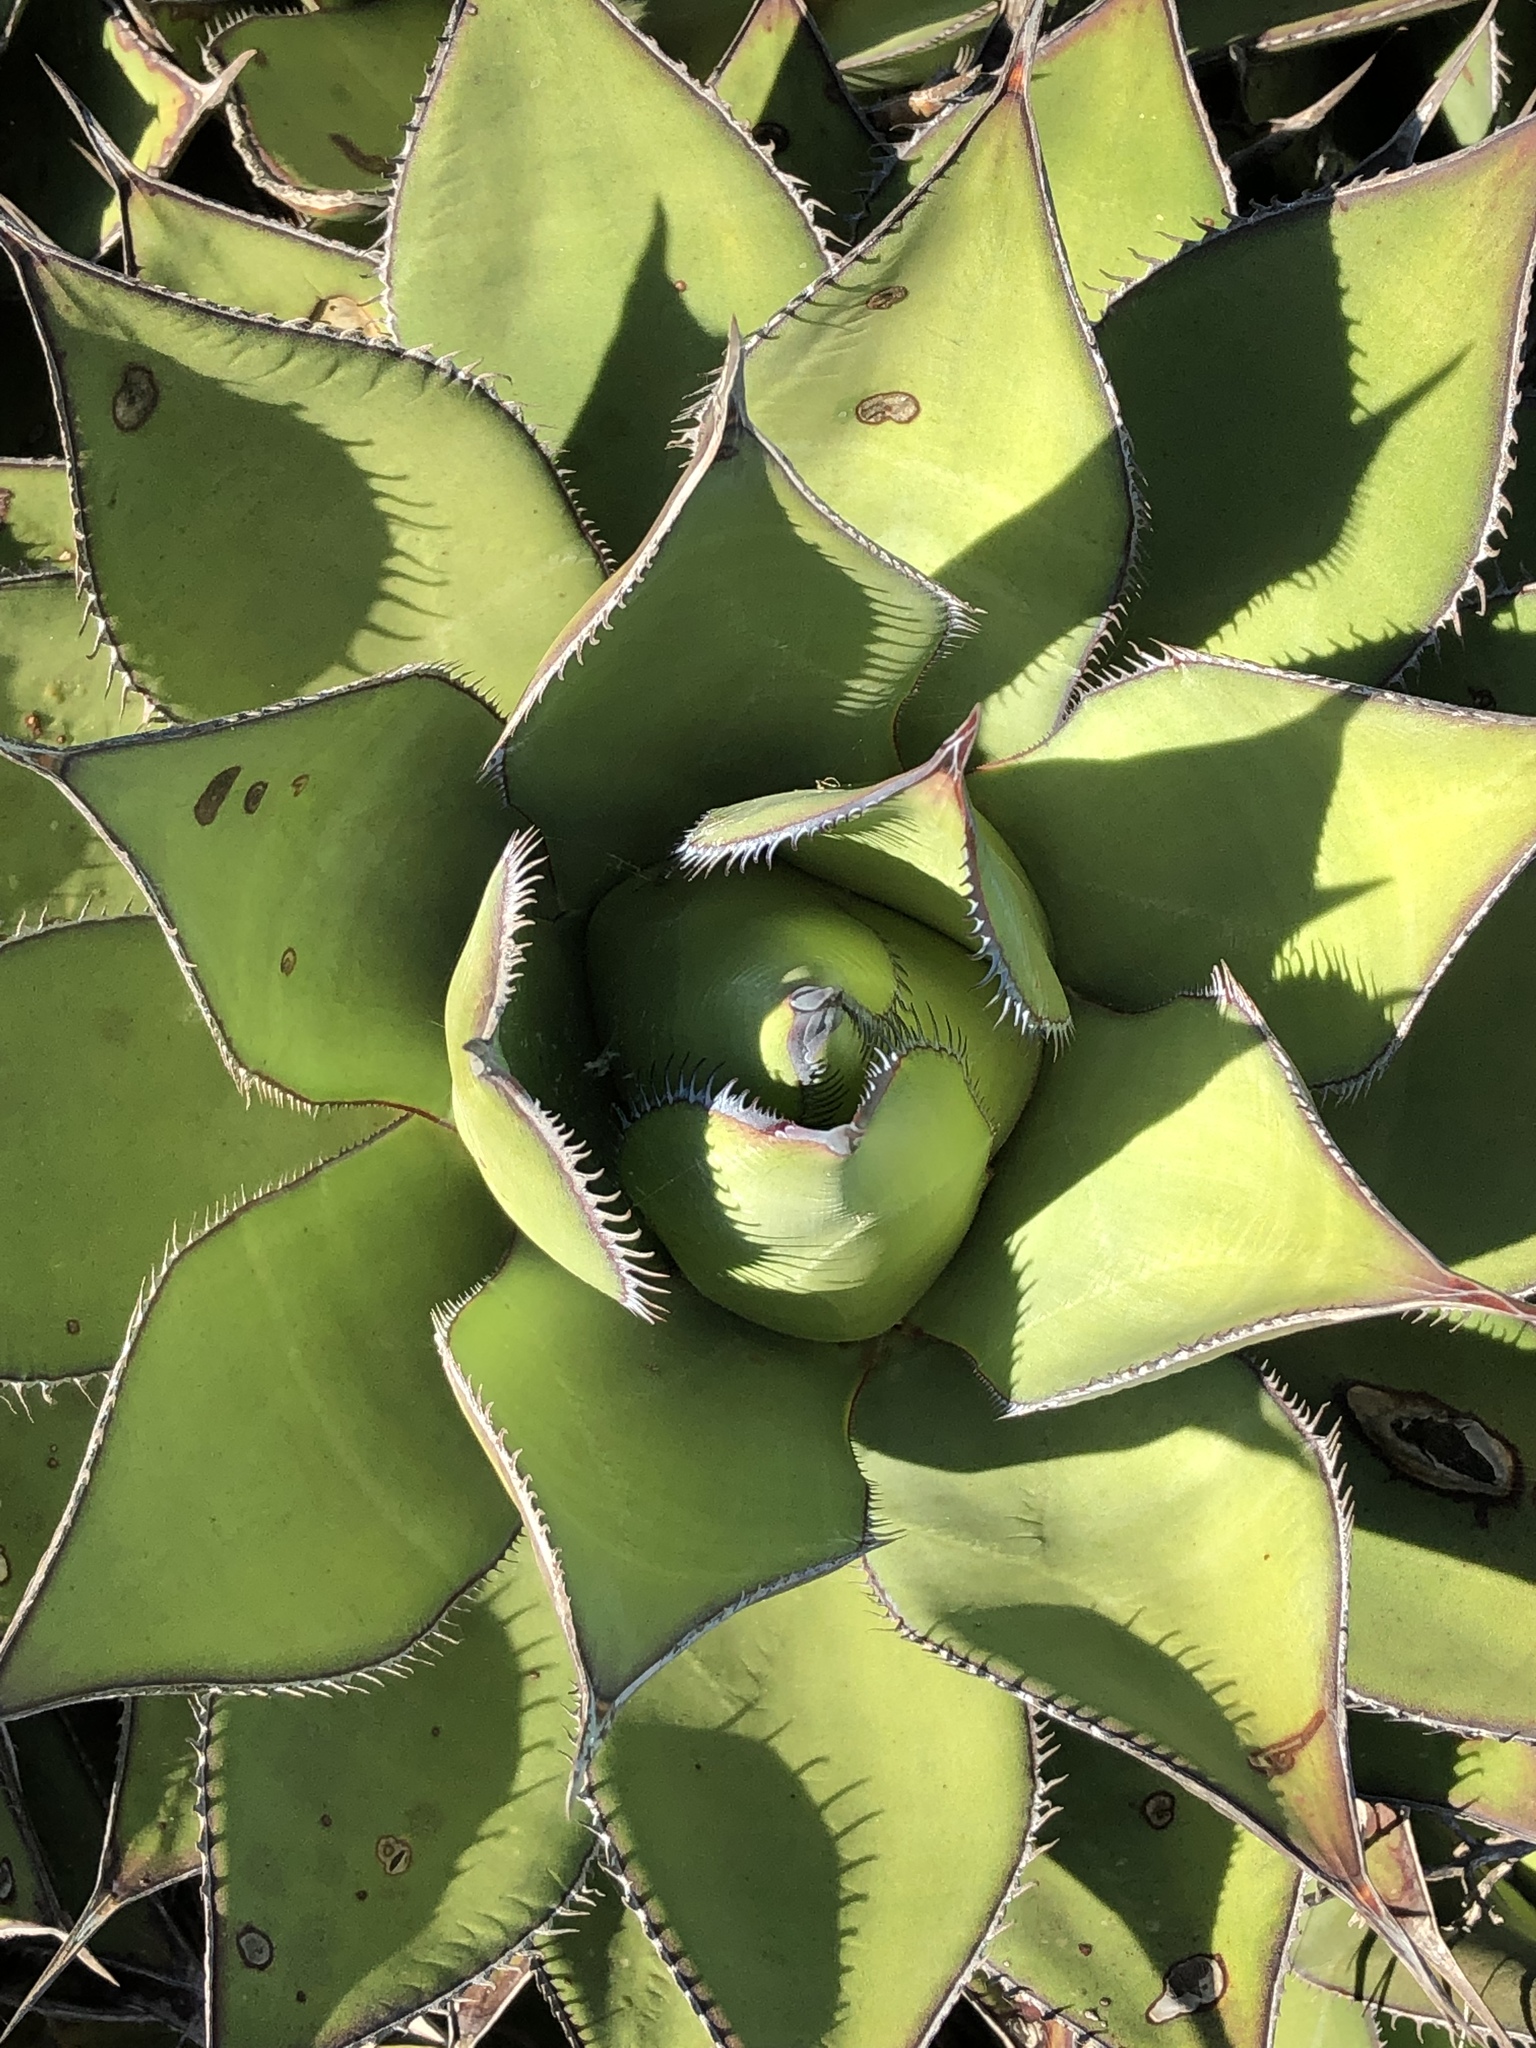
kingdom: Plantae
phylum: Tracheophyta
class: Liliopsida
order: Asparagales
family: Asparagaceae
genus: Agave
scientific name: Agave shawii
